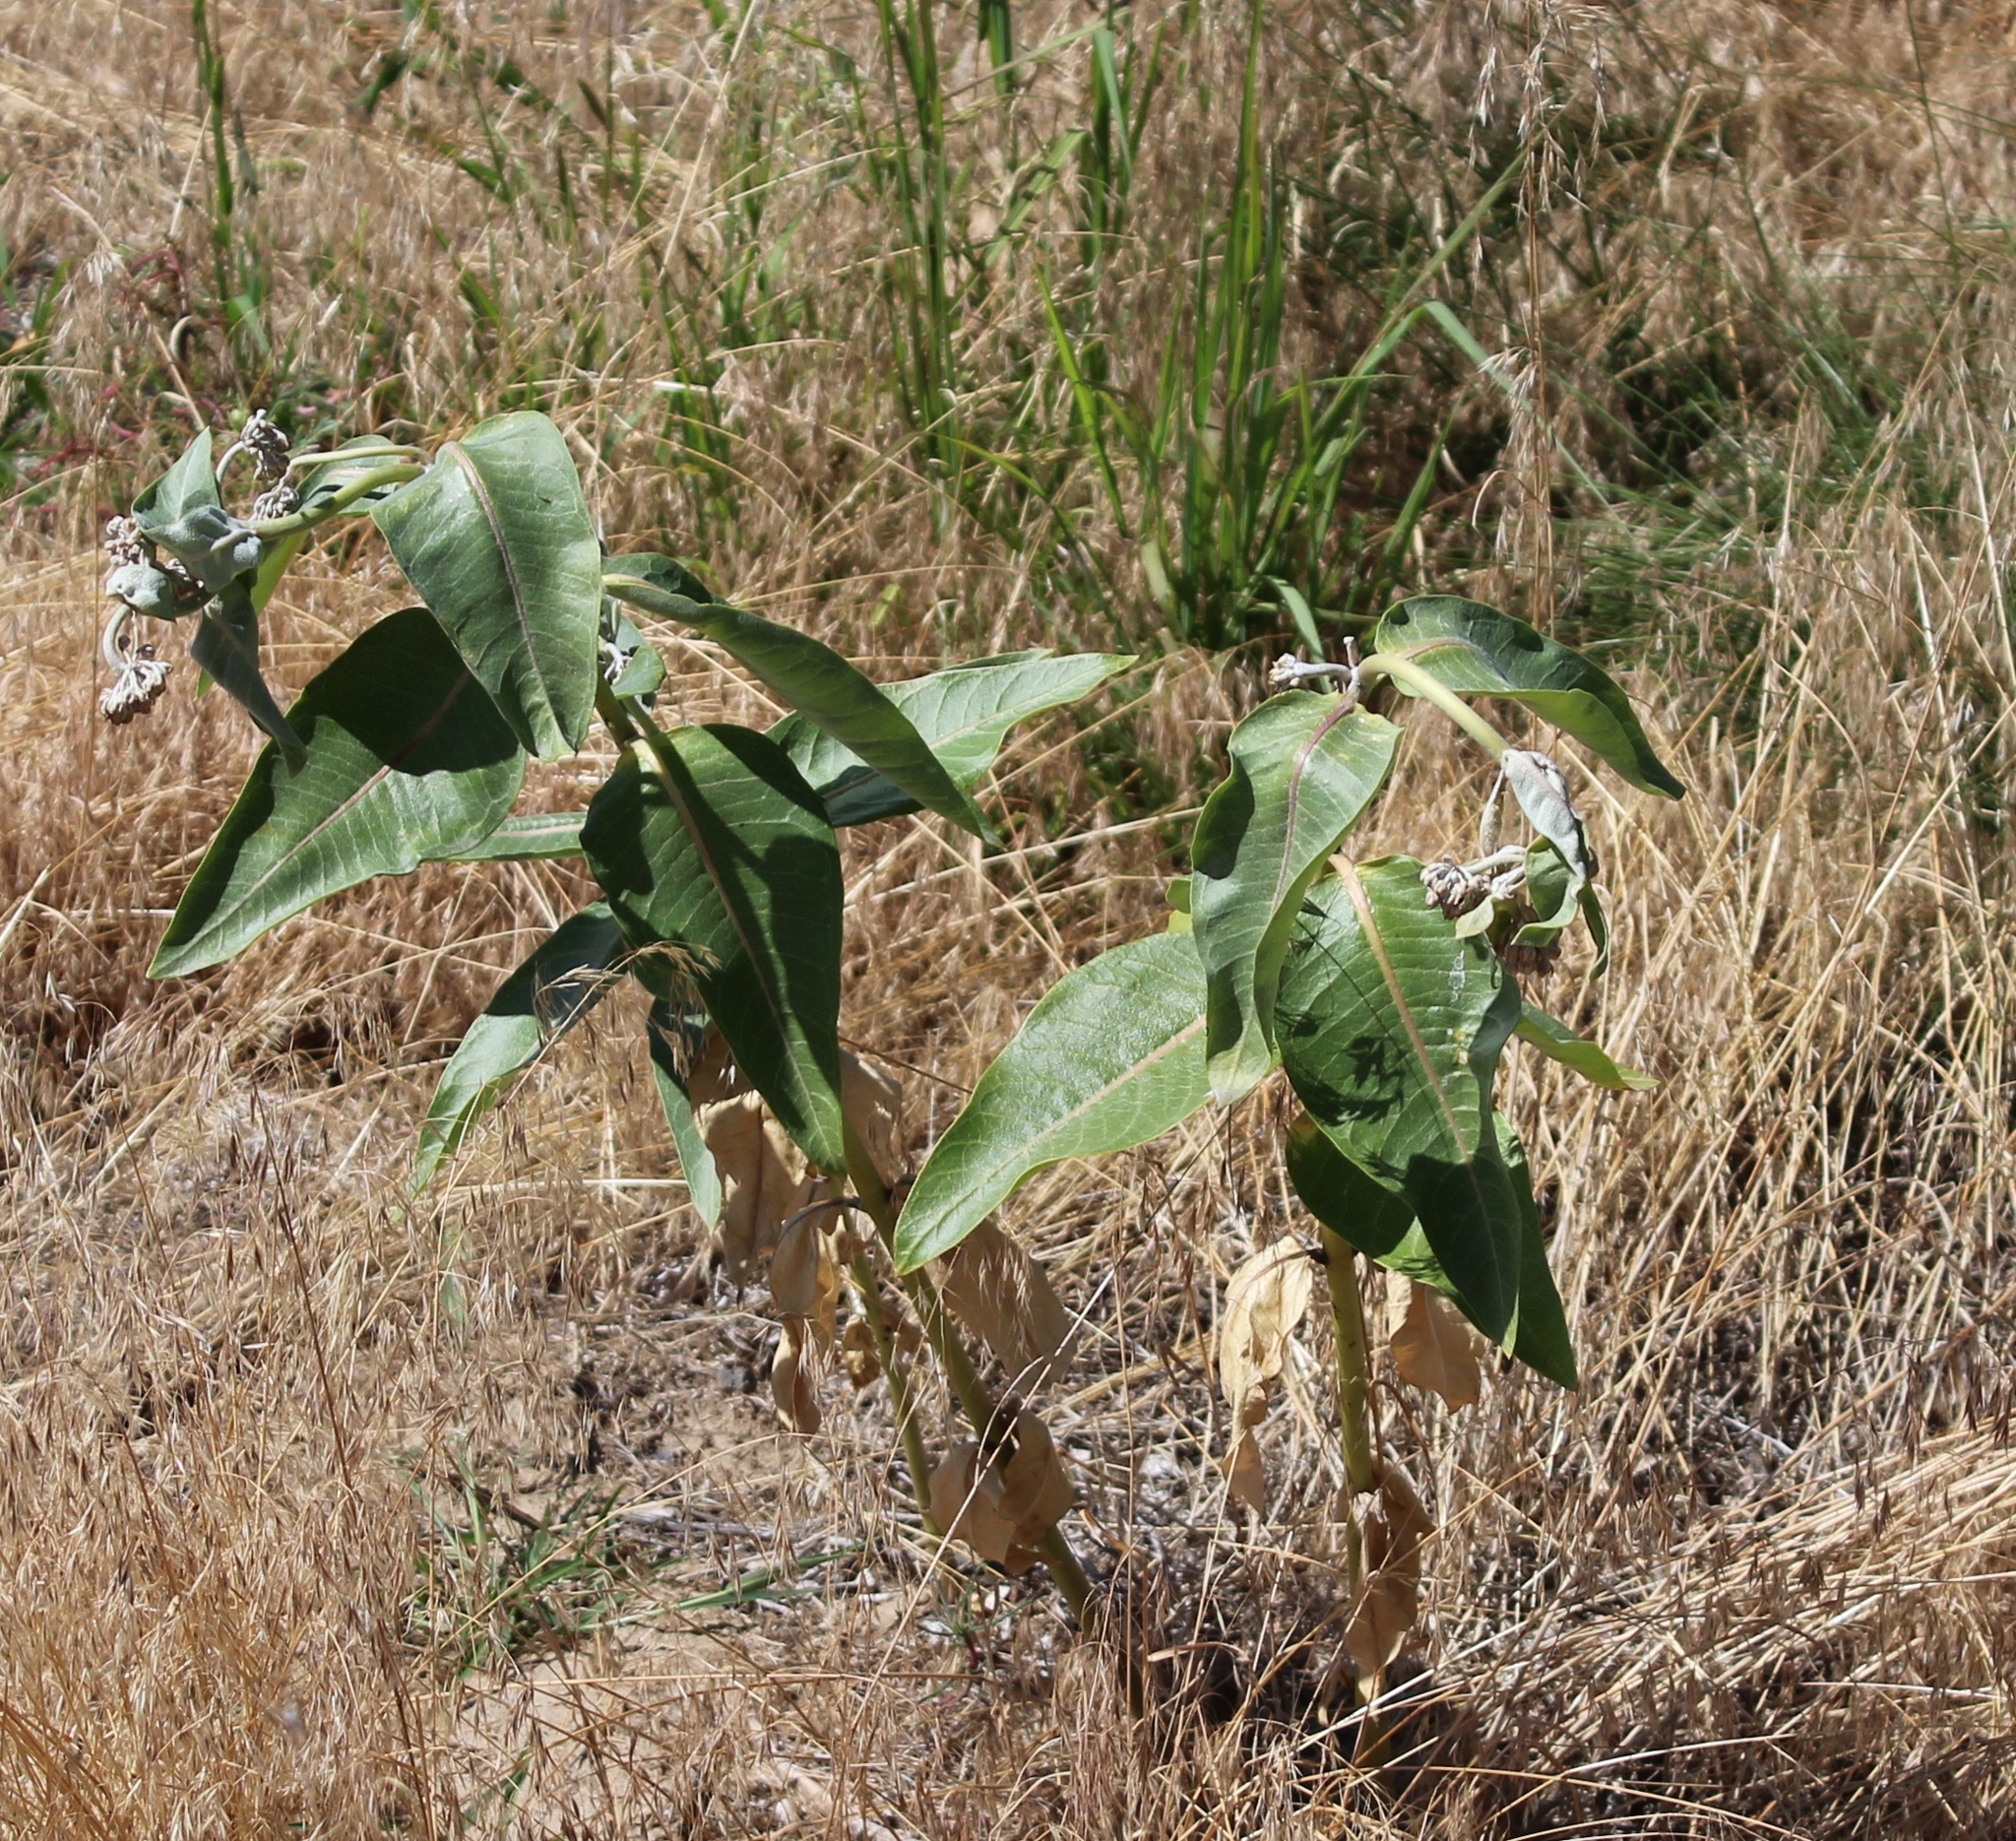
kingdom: Plantae
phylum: Tracheophyta
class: Magnoliopsida
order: Gentianales
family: Apocynaceae
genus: Asclepias
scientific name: Asclepias speciosa
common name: Showy milkweed
